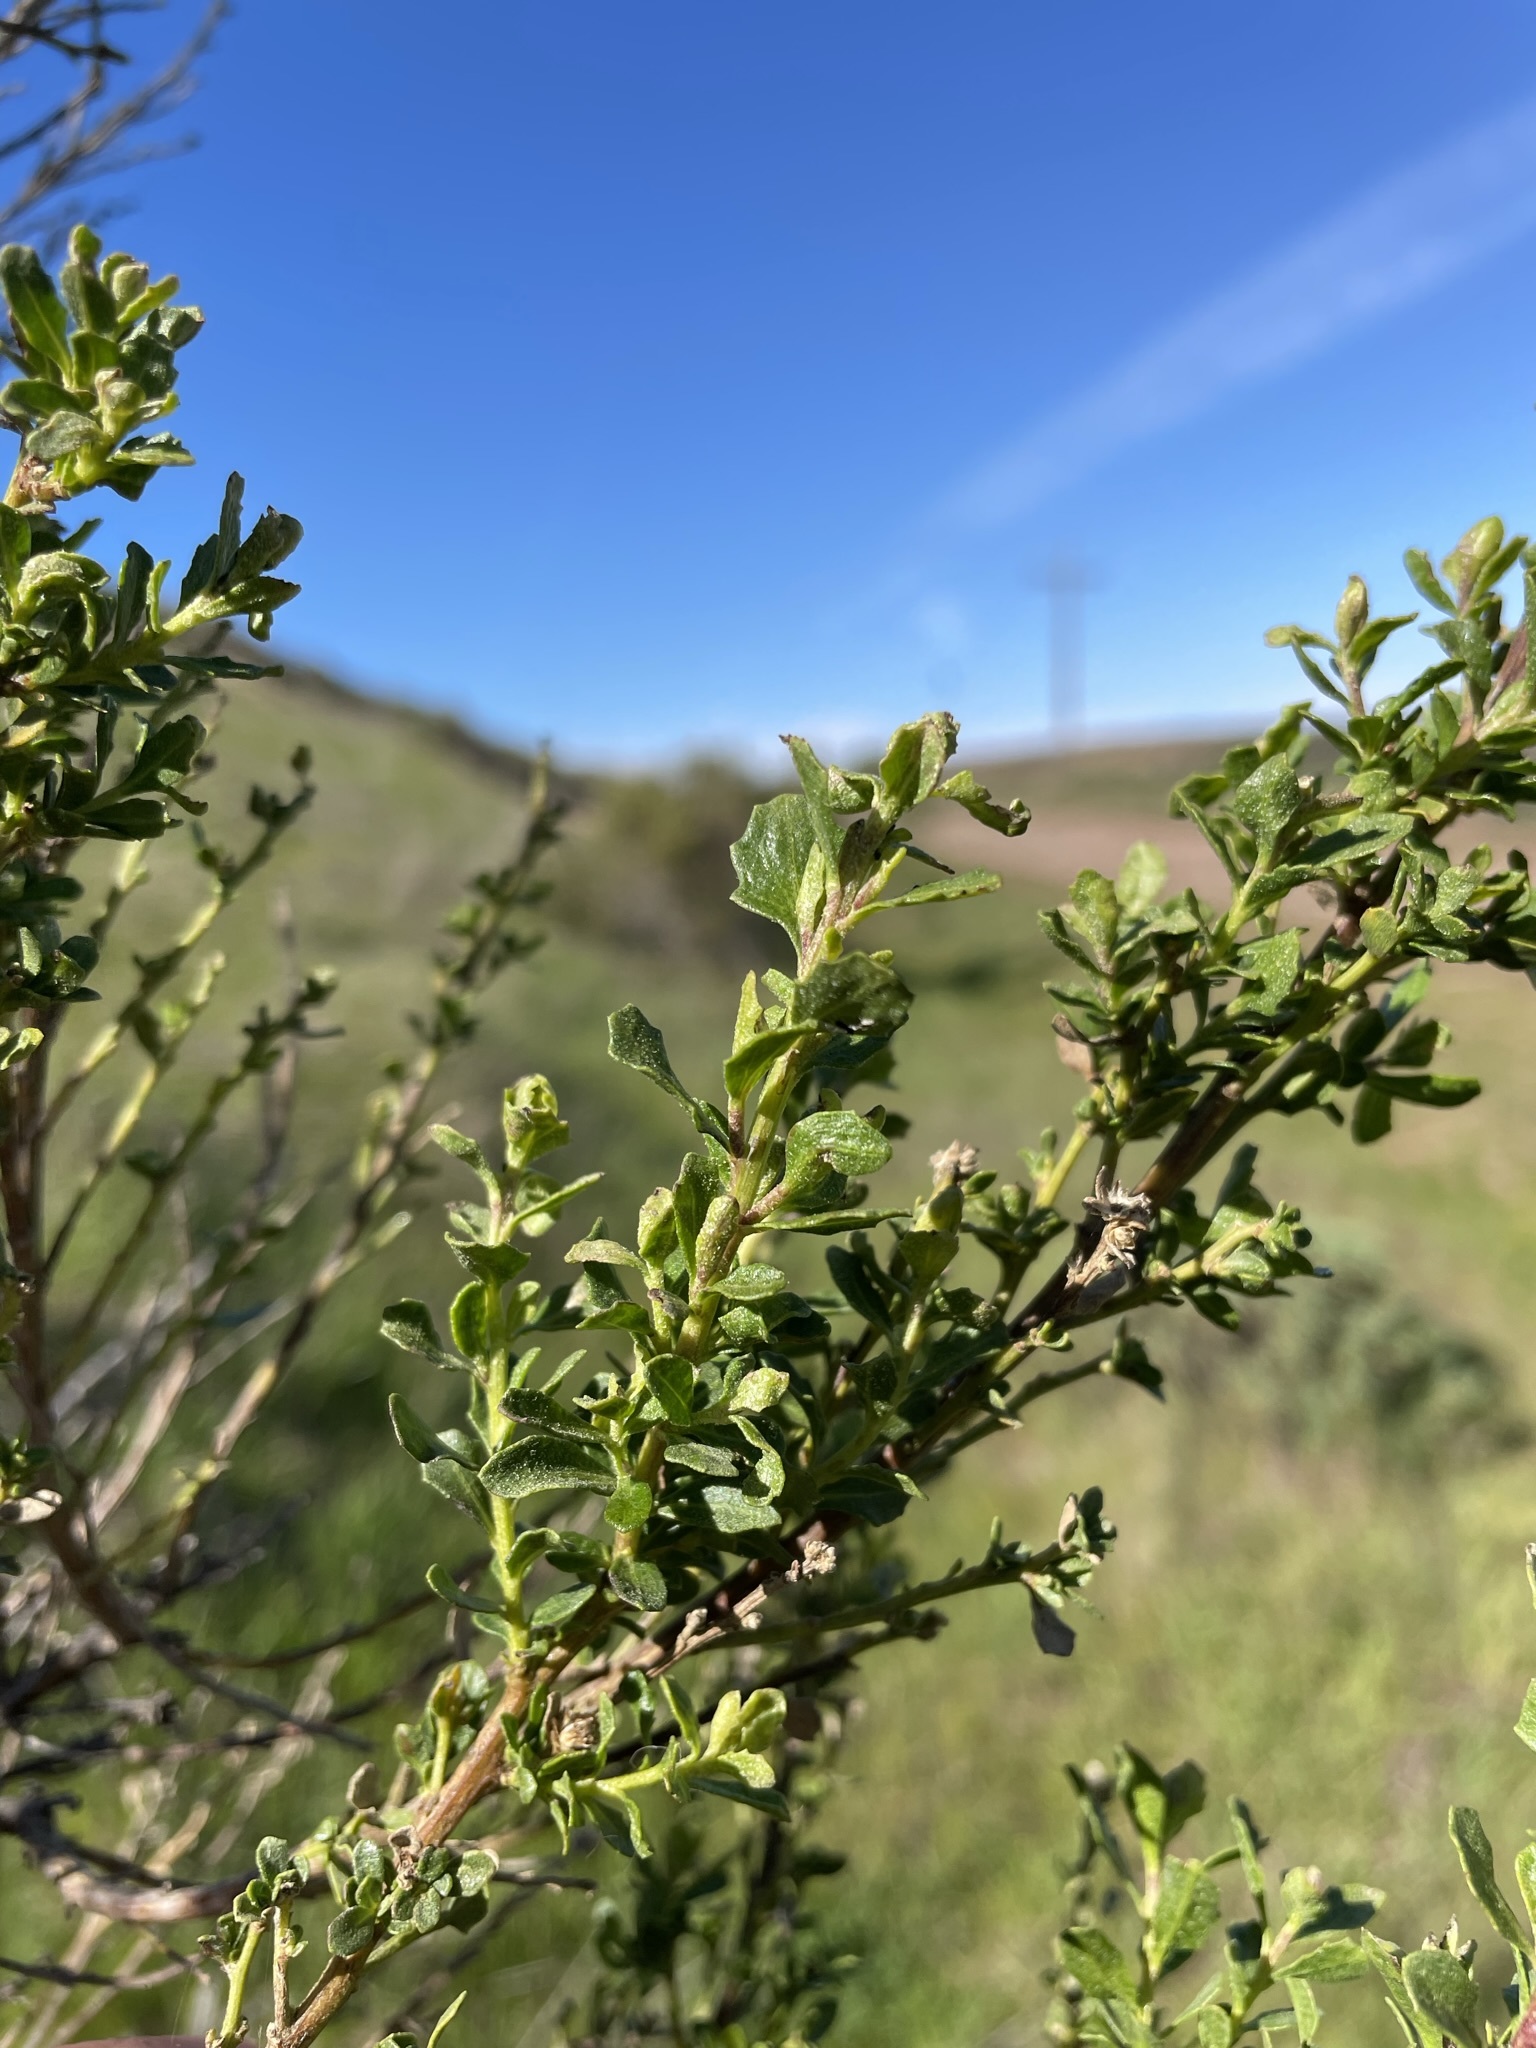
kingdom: Plantae
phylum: Tracheophyta
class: Magnoliopsida
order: Asterales
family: Asteraceae
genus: Baccharis
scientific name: Baccharis pilularis
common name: Coyotebrush
